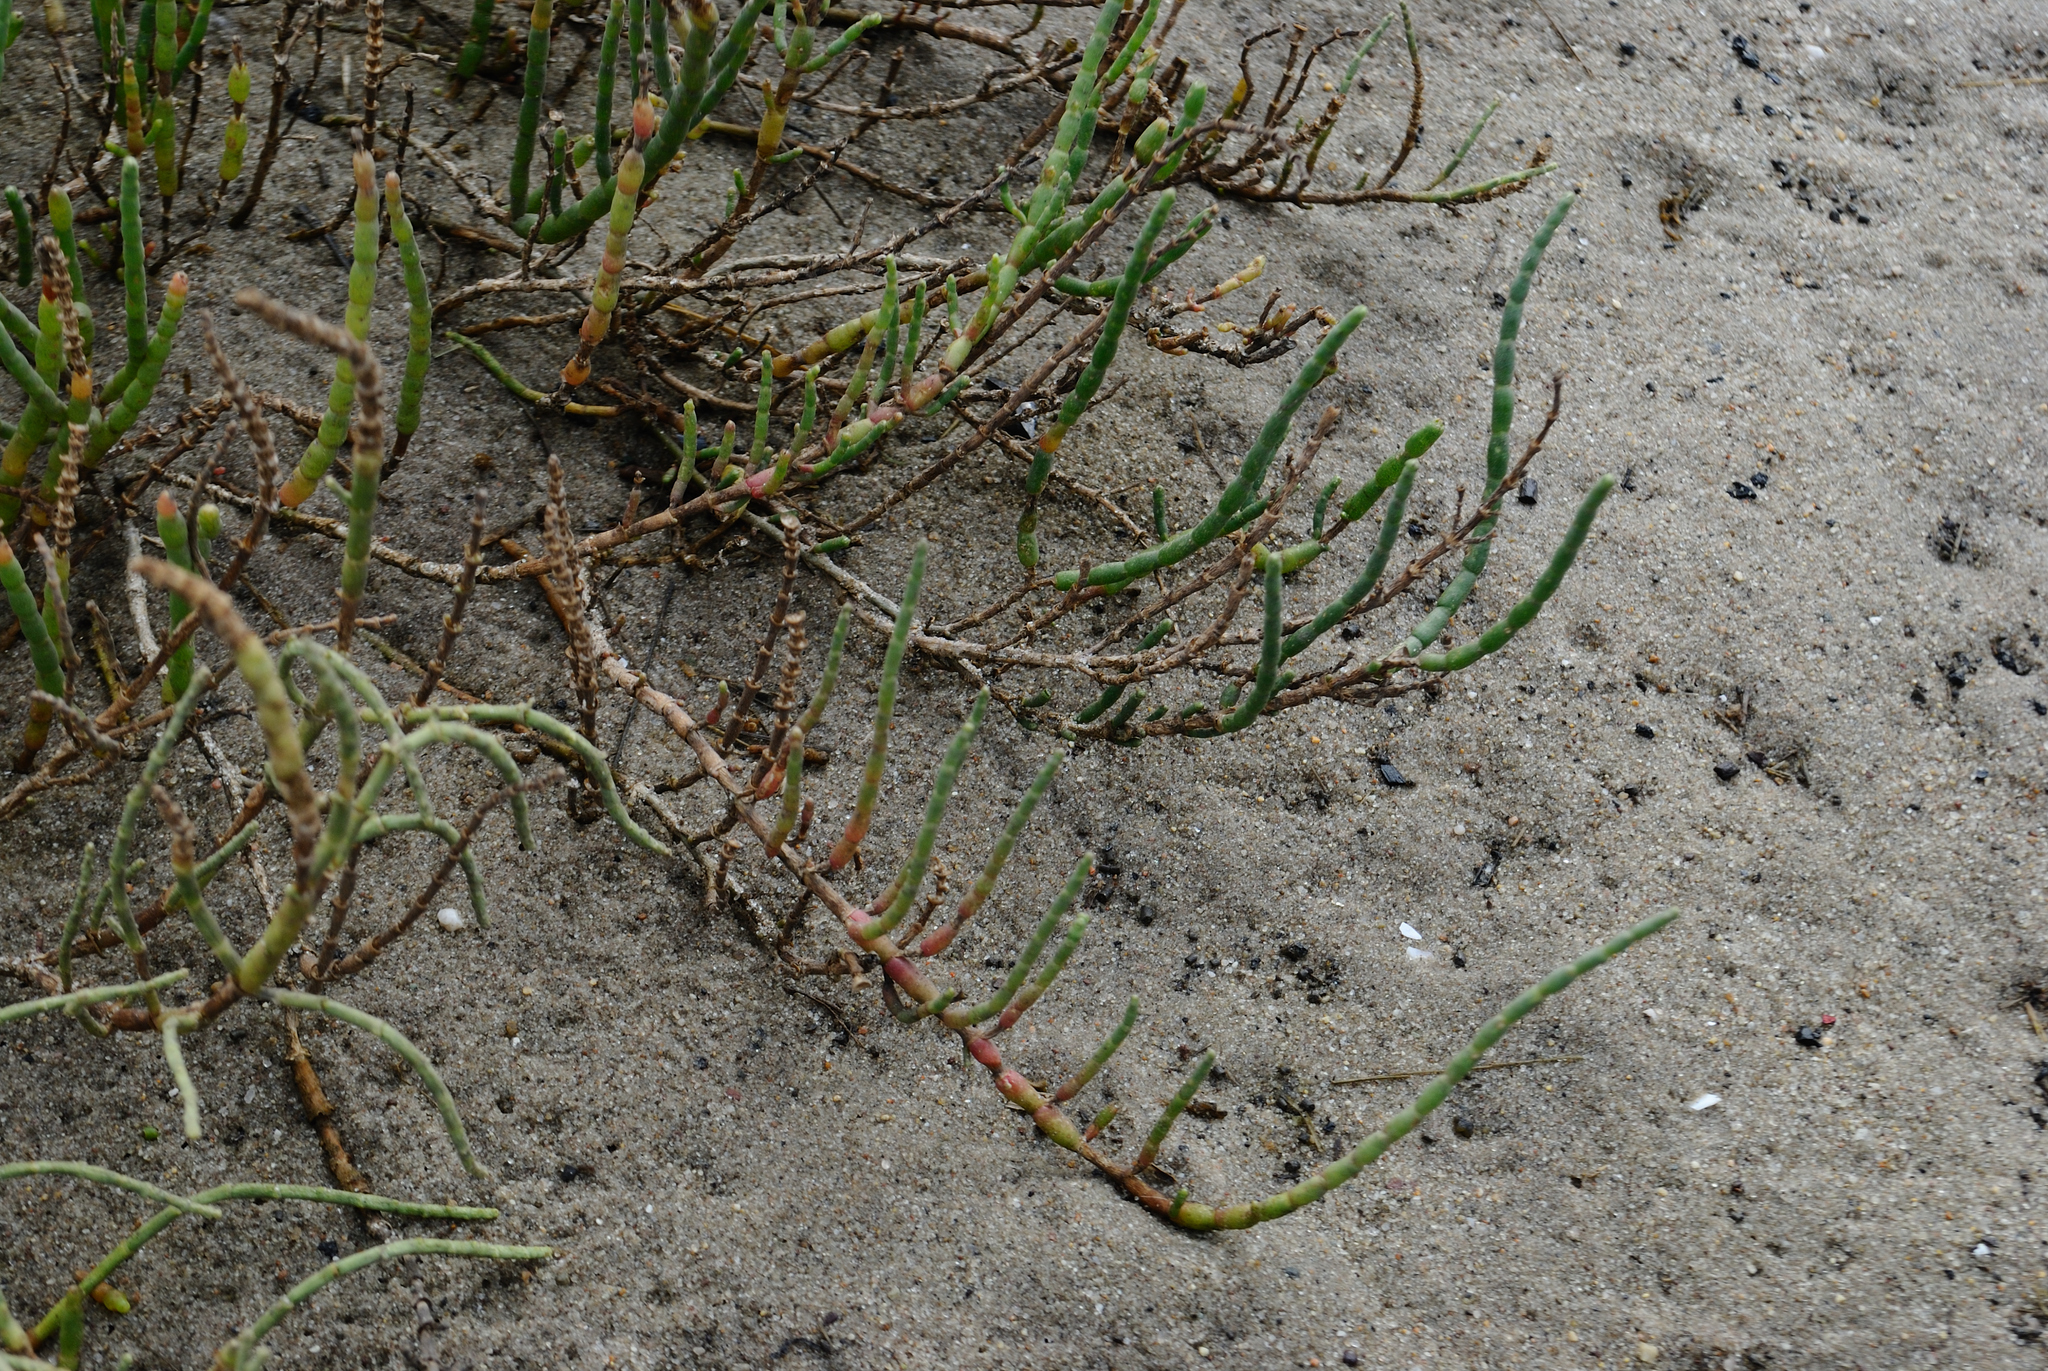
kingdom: Plantae
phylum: Tracheophyta
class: Magnoliopsida
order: Caryophyllales
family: Amaranthaceae
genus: Salicornia
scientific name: Salicornia ambigua
